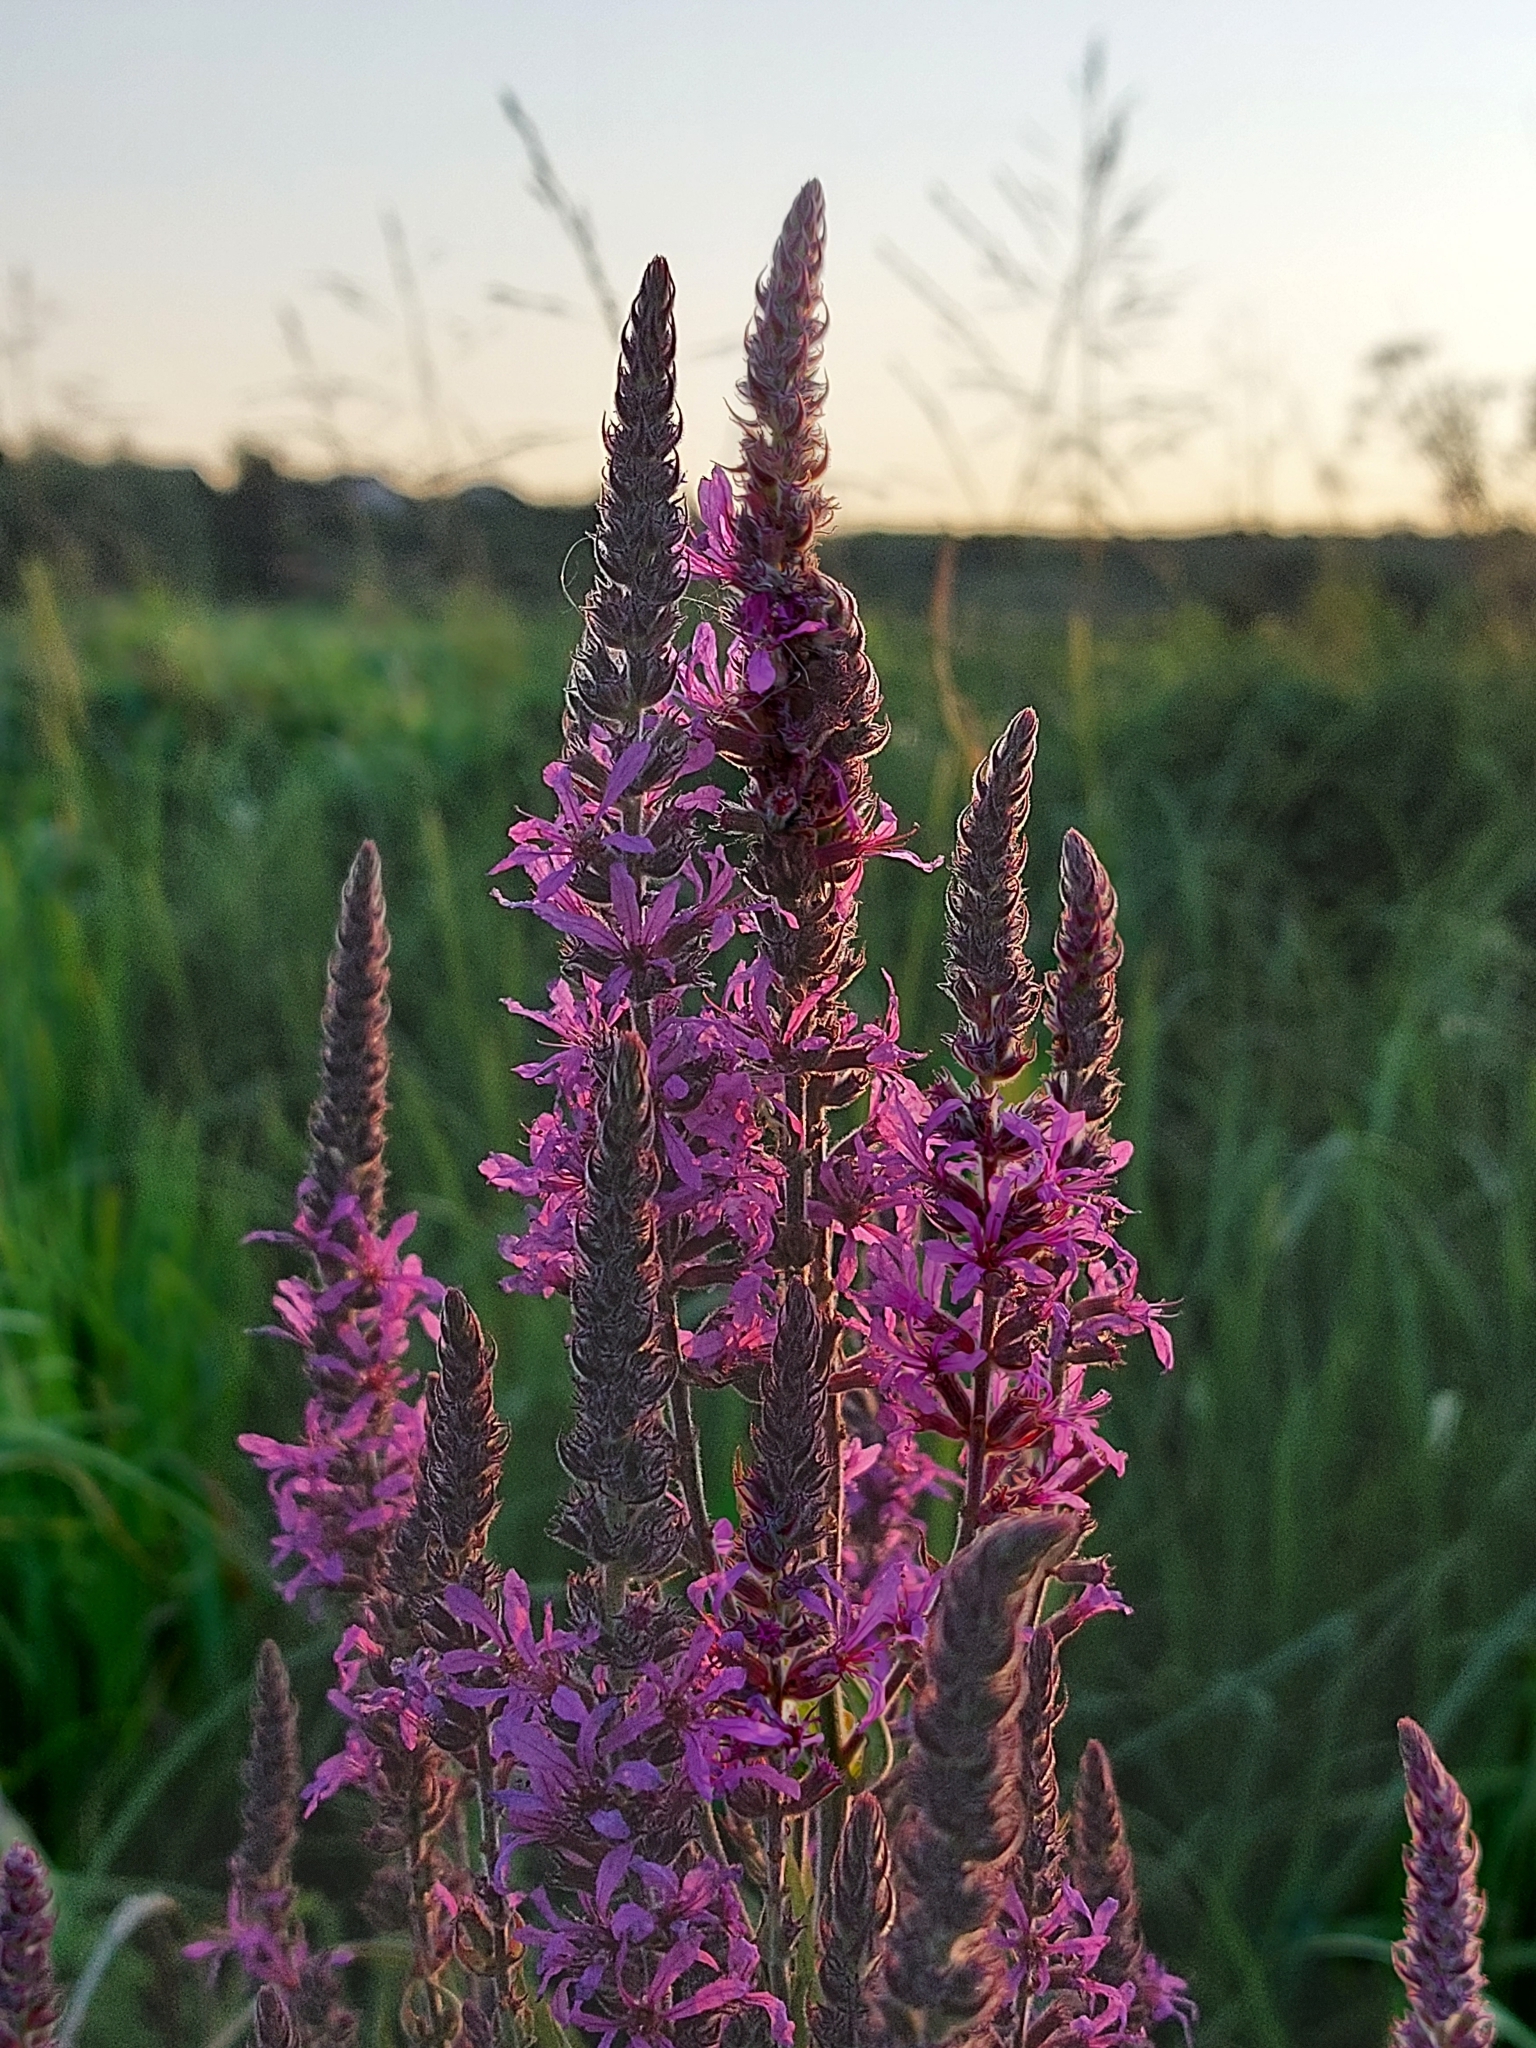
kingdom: Plantae
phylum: Tracheophyta
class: Magnoliopsida
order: Myrtales
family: Lythraceae
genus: Lythrum
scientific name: Lythrum salicaria
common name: Purple loosestrife
